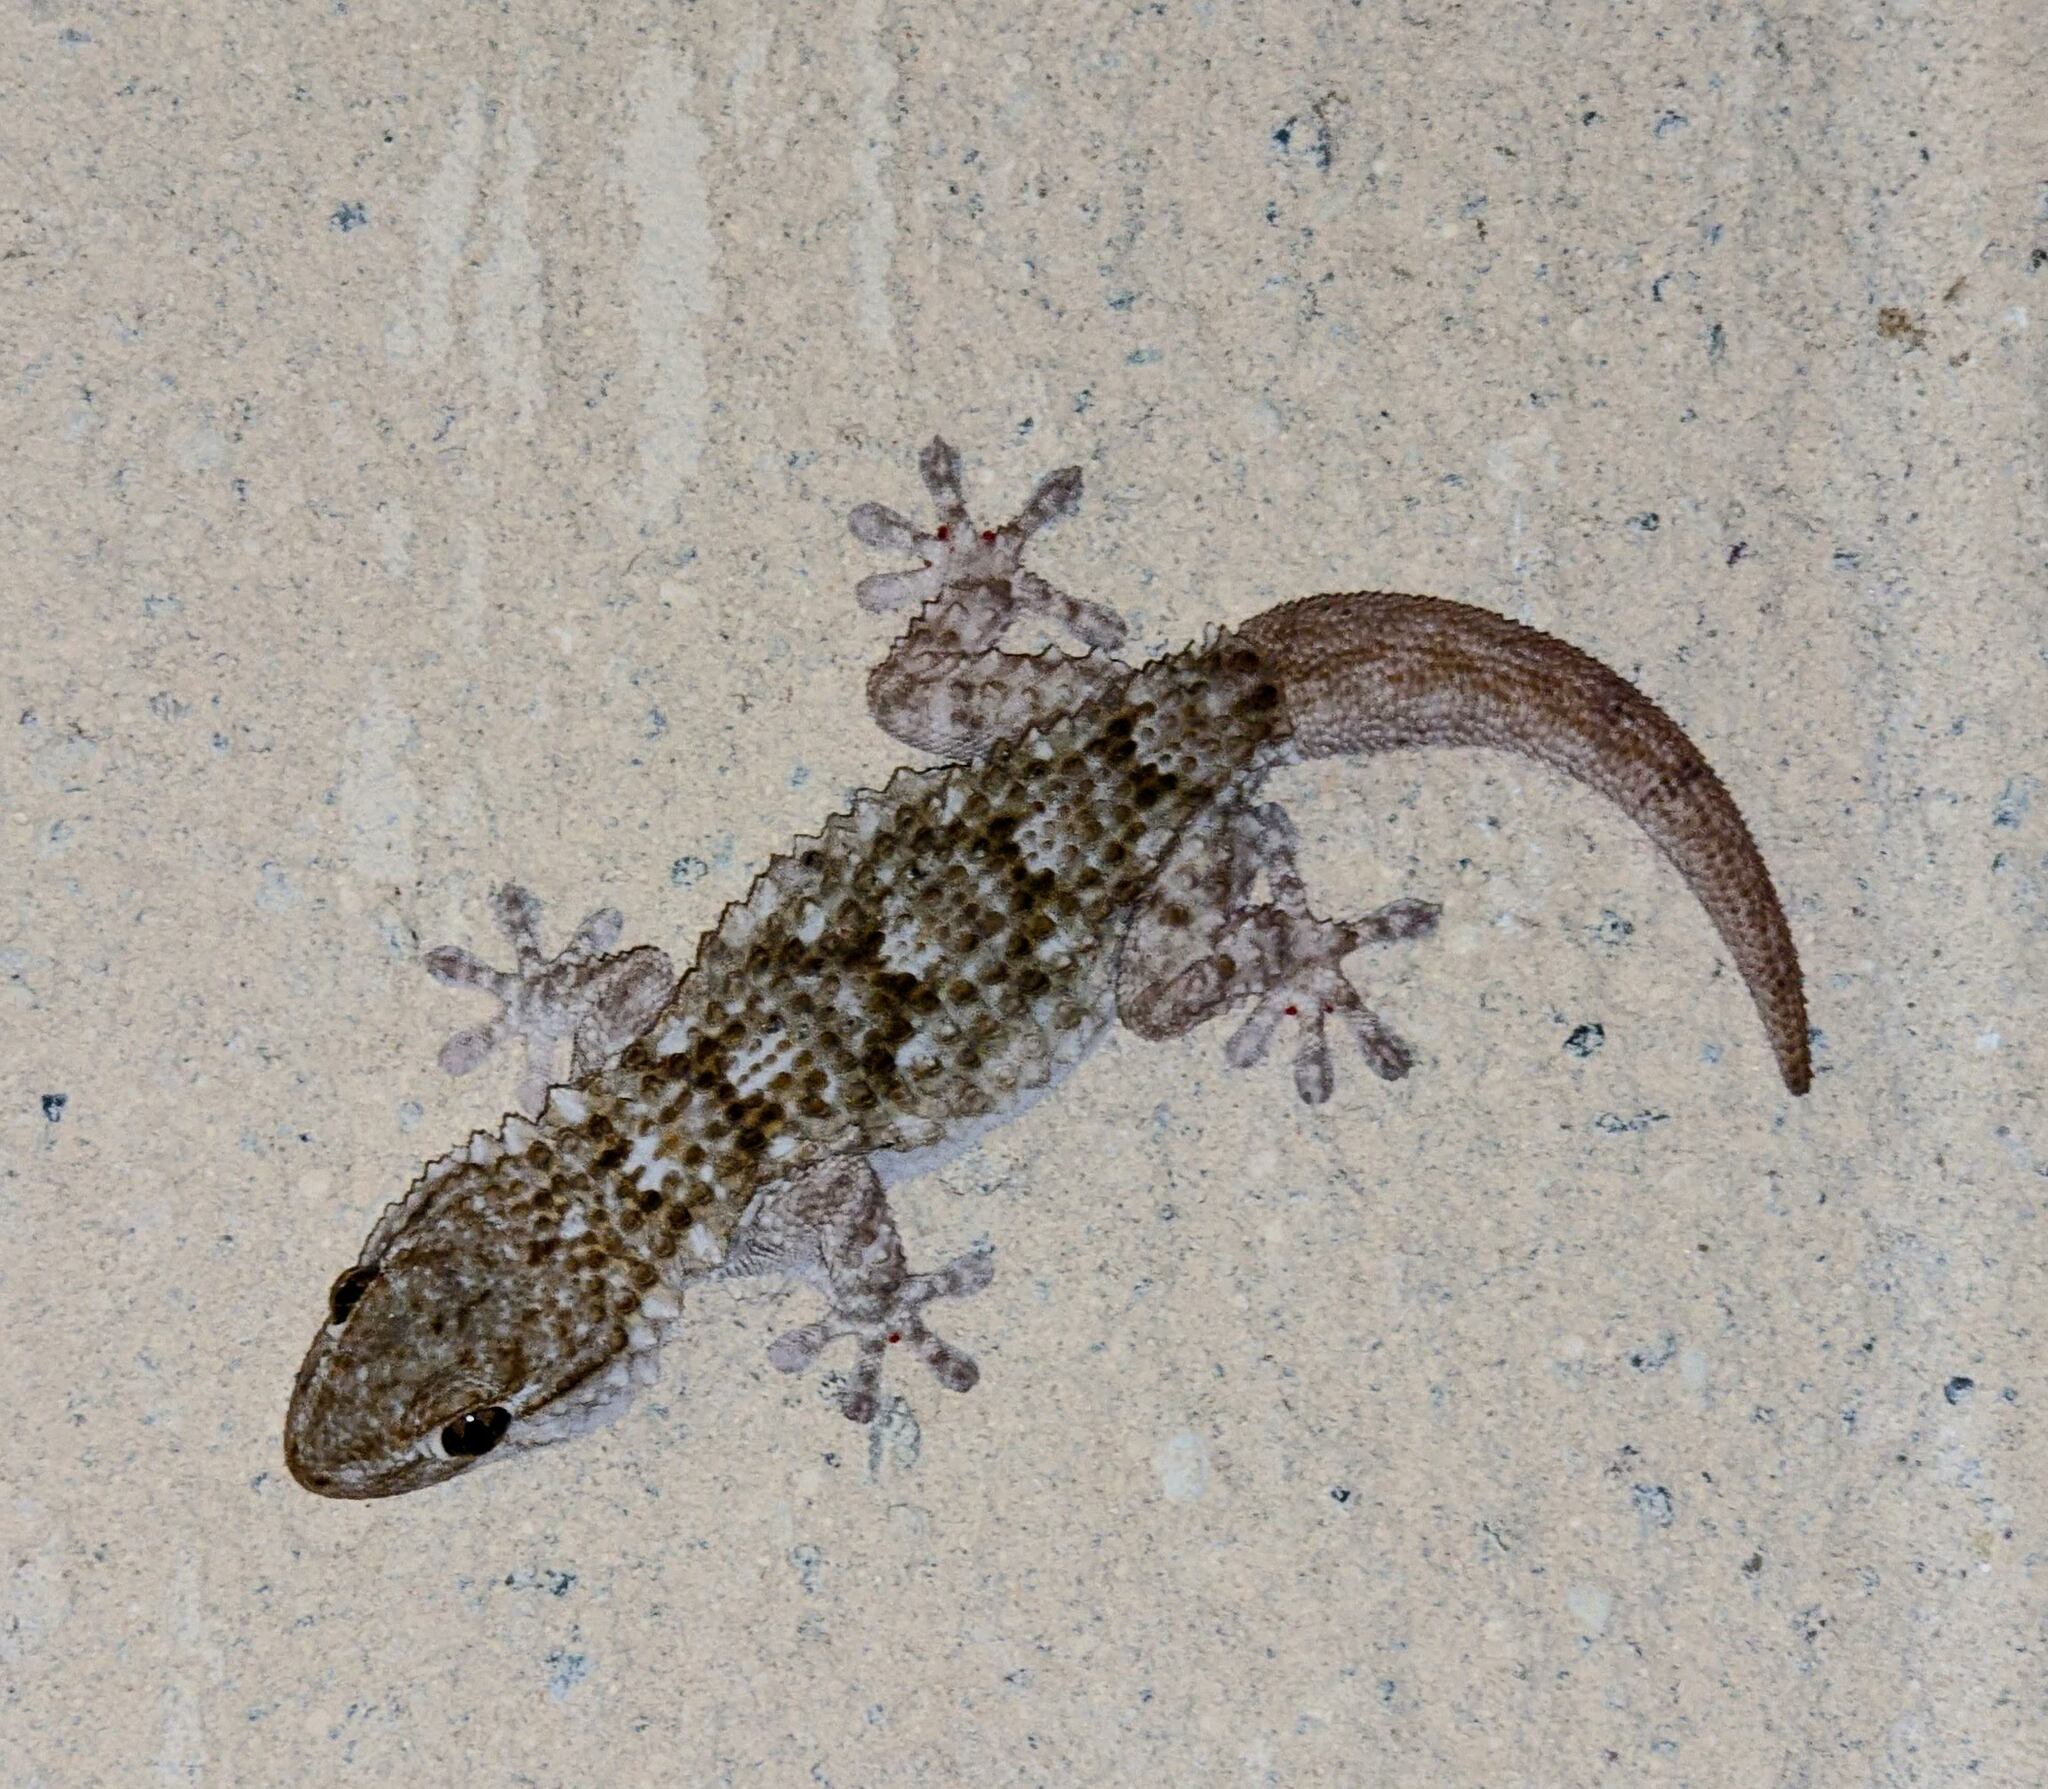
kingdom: Animalia
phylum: Chordata
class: Squamata
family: Phyllodactylidae
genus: Tarentola
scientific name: Tarentola mauritanica
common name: Moorish gecko
